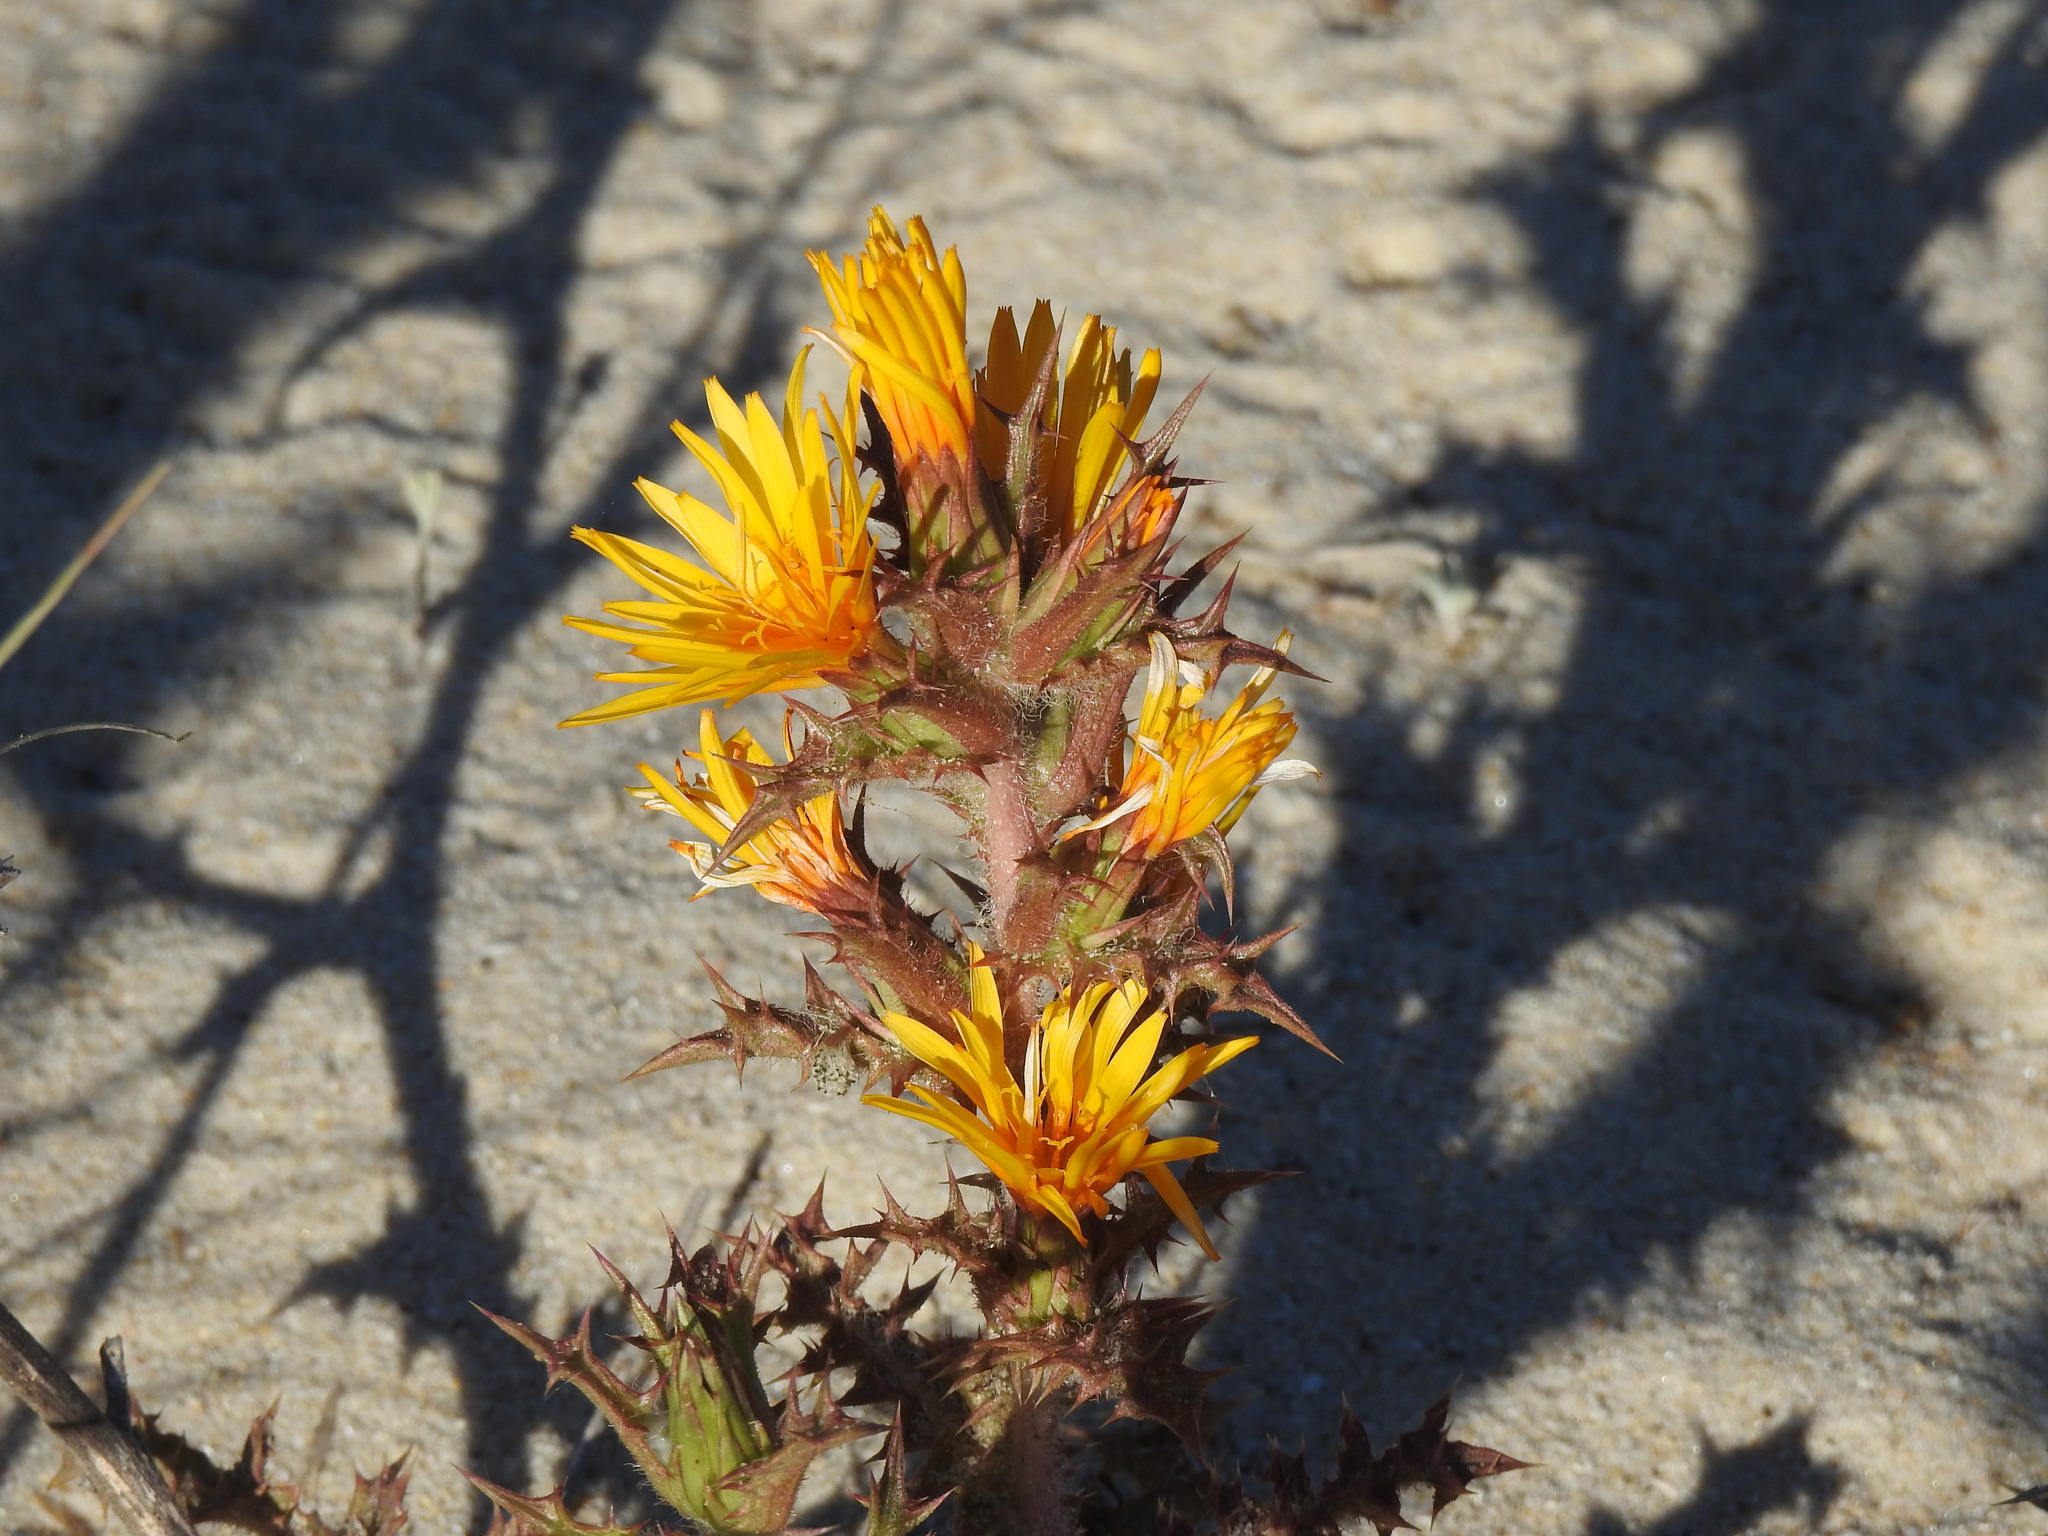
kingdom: Plantae
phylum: Tracheophyta
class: Magnoliopsida
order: Asterales
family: Asteraceae
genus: Scolymus
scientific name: Scolymus hispanicus
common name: Golden thistle
